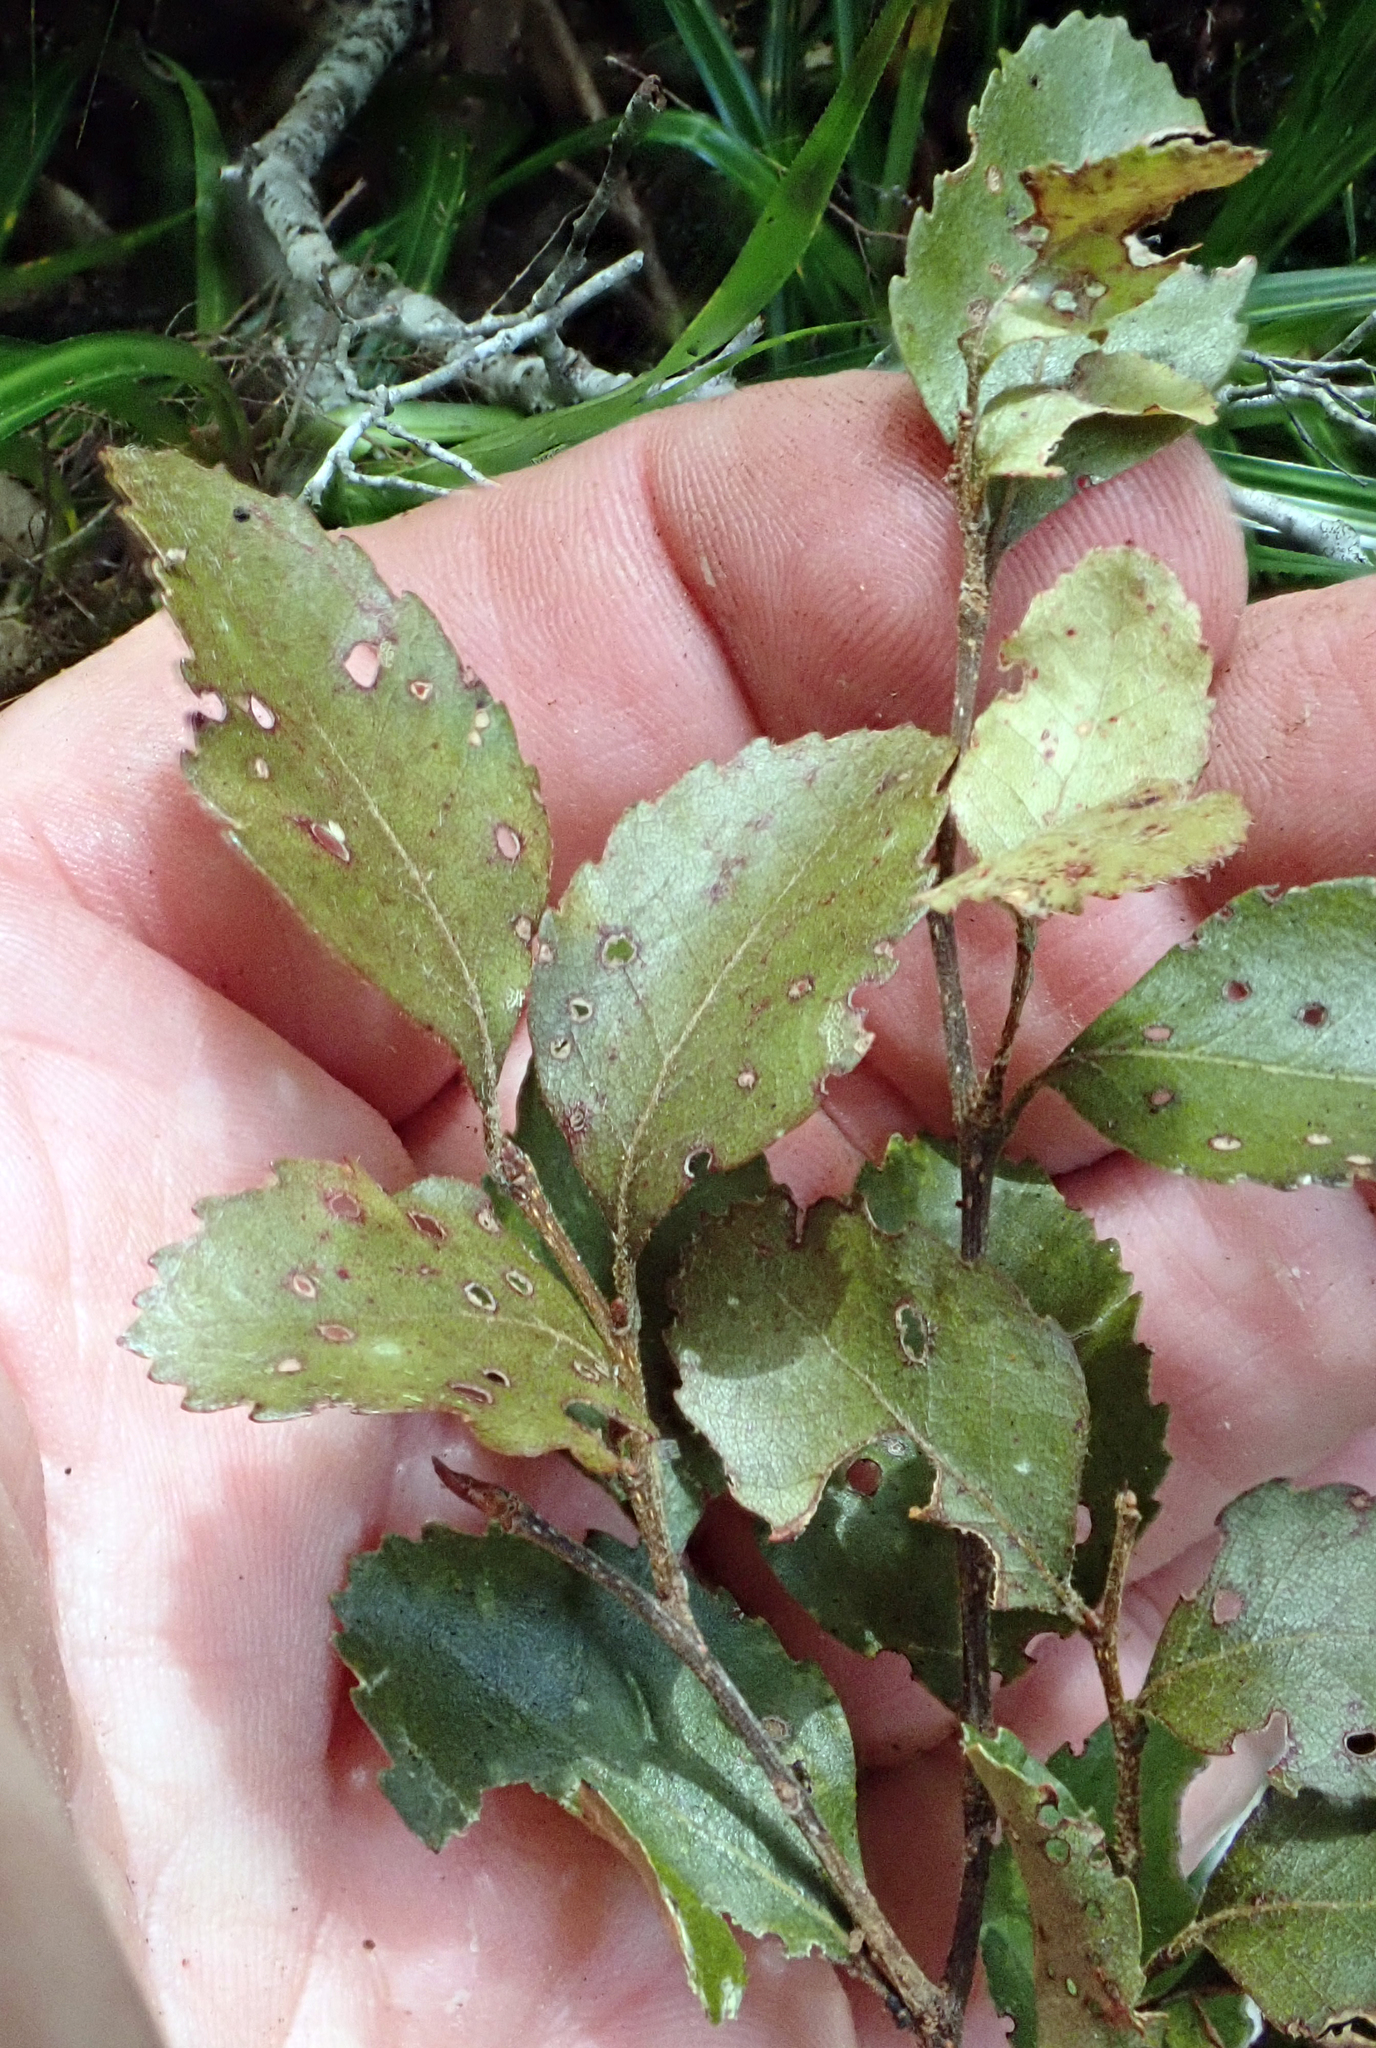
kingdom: Plantae
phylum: Tracheophyta
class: Magnoliopsida
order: Fagales
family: Nothofagaceae
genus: Nothofagus
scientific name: Nothofagus truncata
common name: Hard beech
